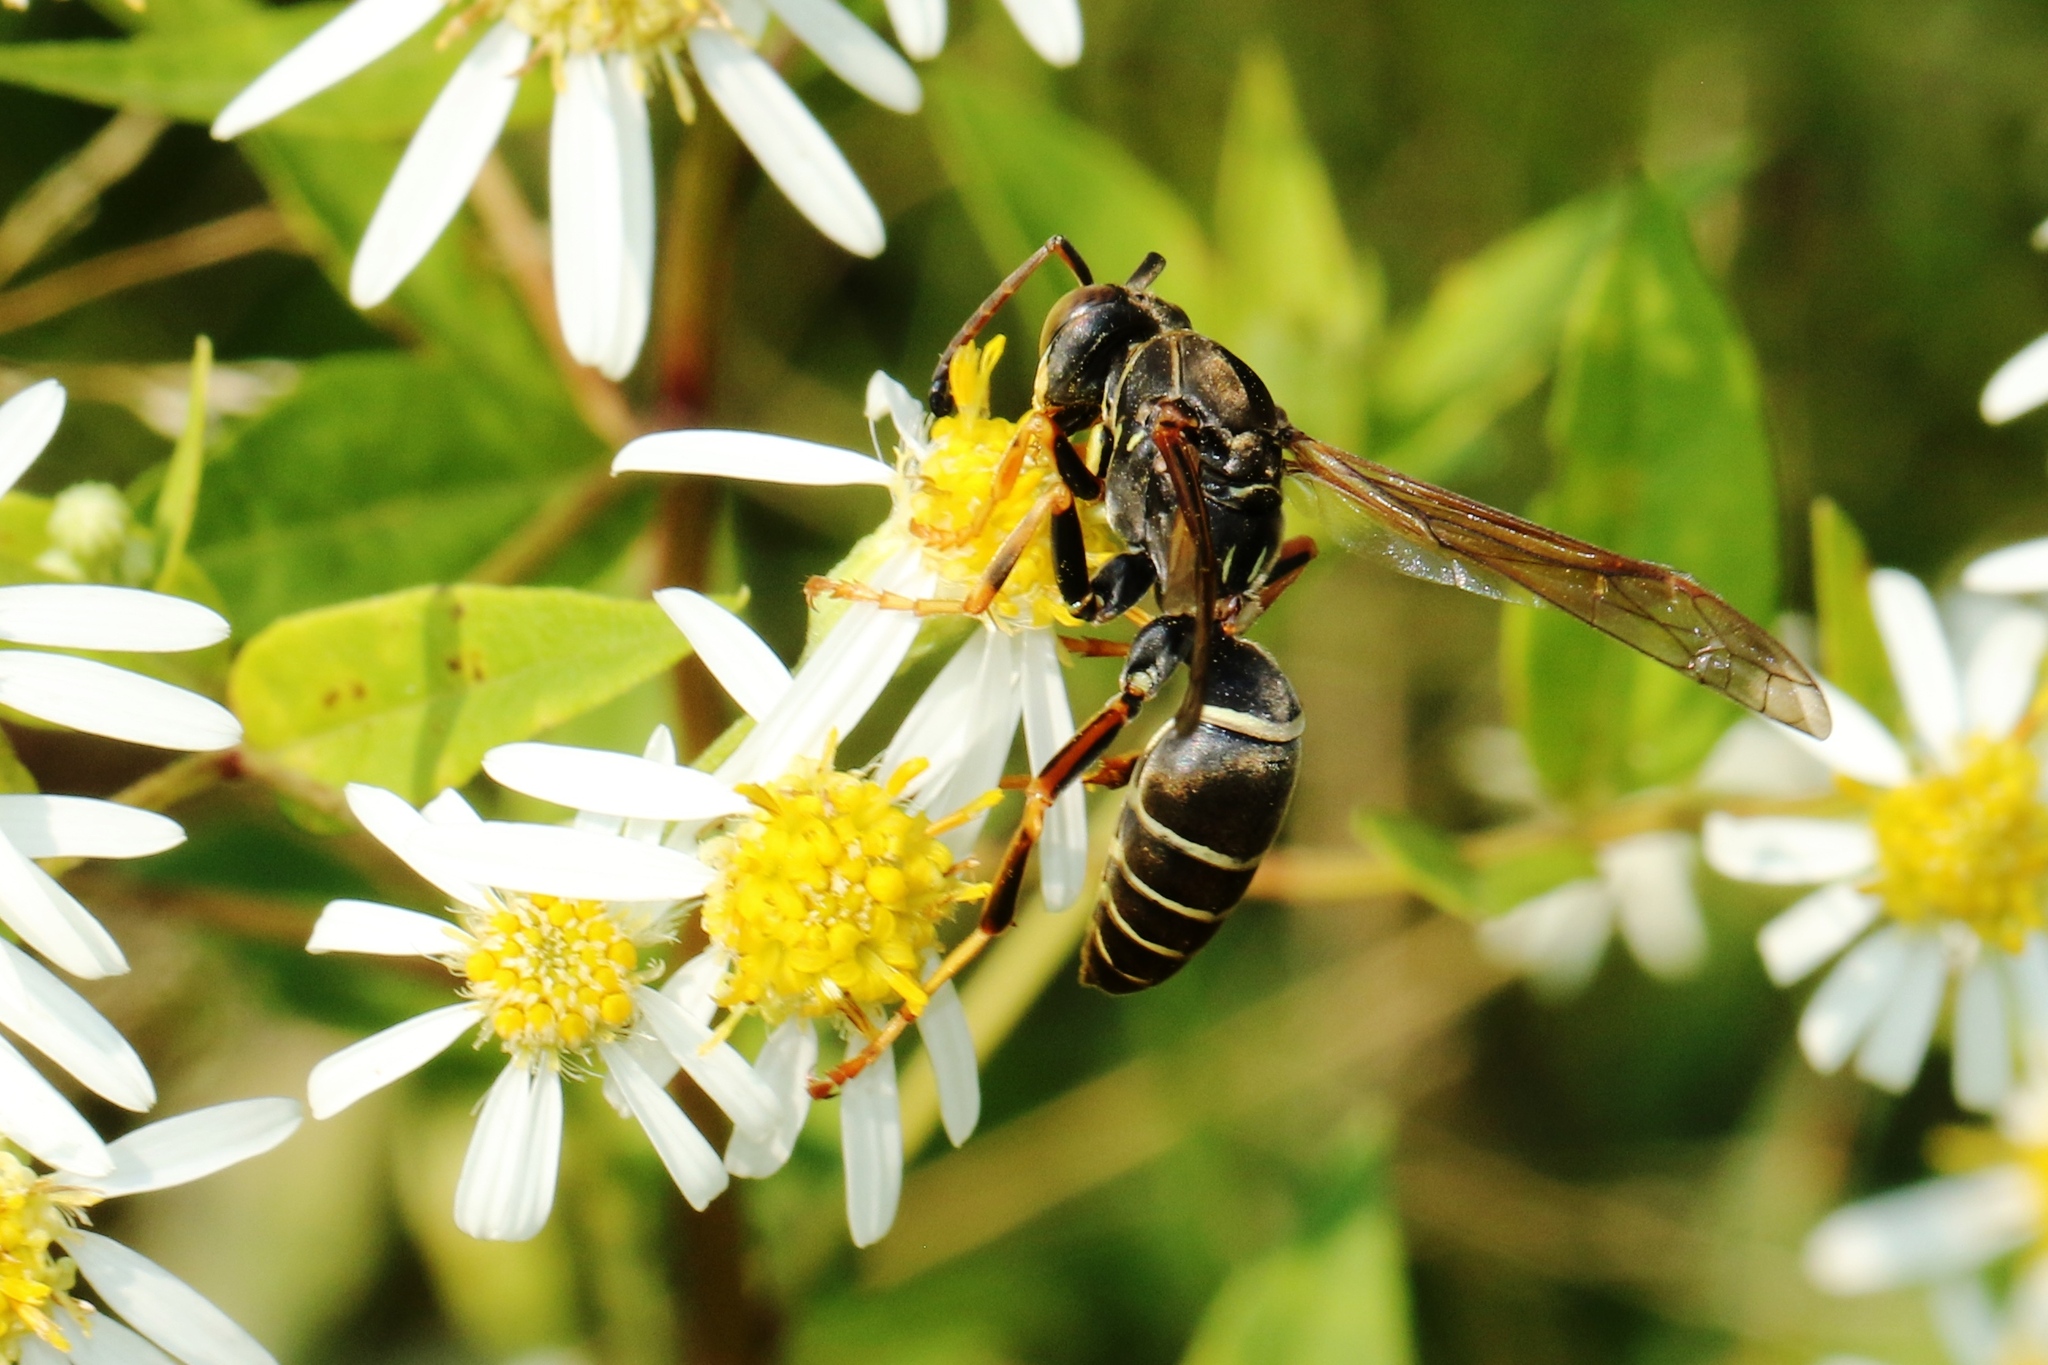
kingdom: Animalia
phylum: Arthropoda
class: Insecta
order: Hymenoptera
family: Eumenidae
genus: Polistes
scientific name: Polistes fuscatus
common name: Dark paper wasp
